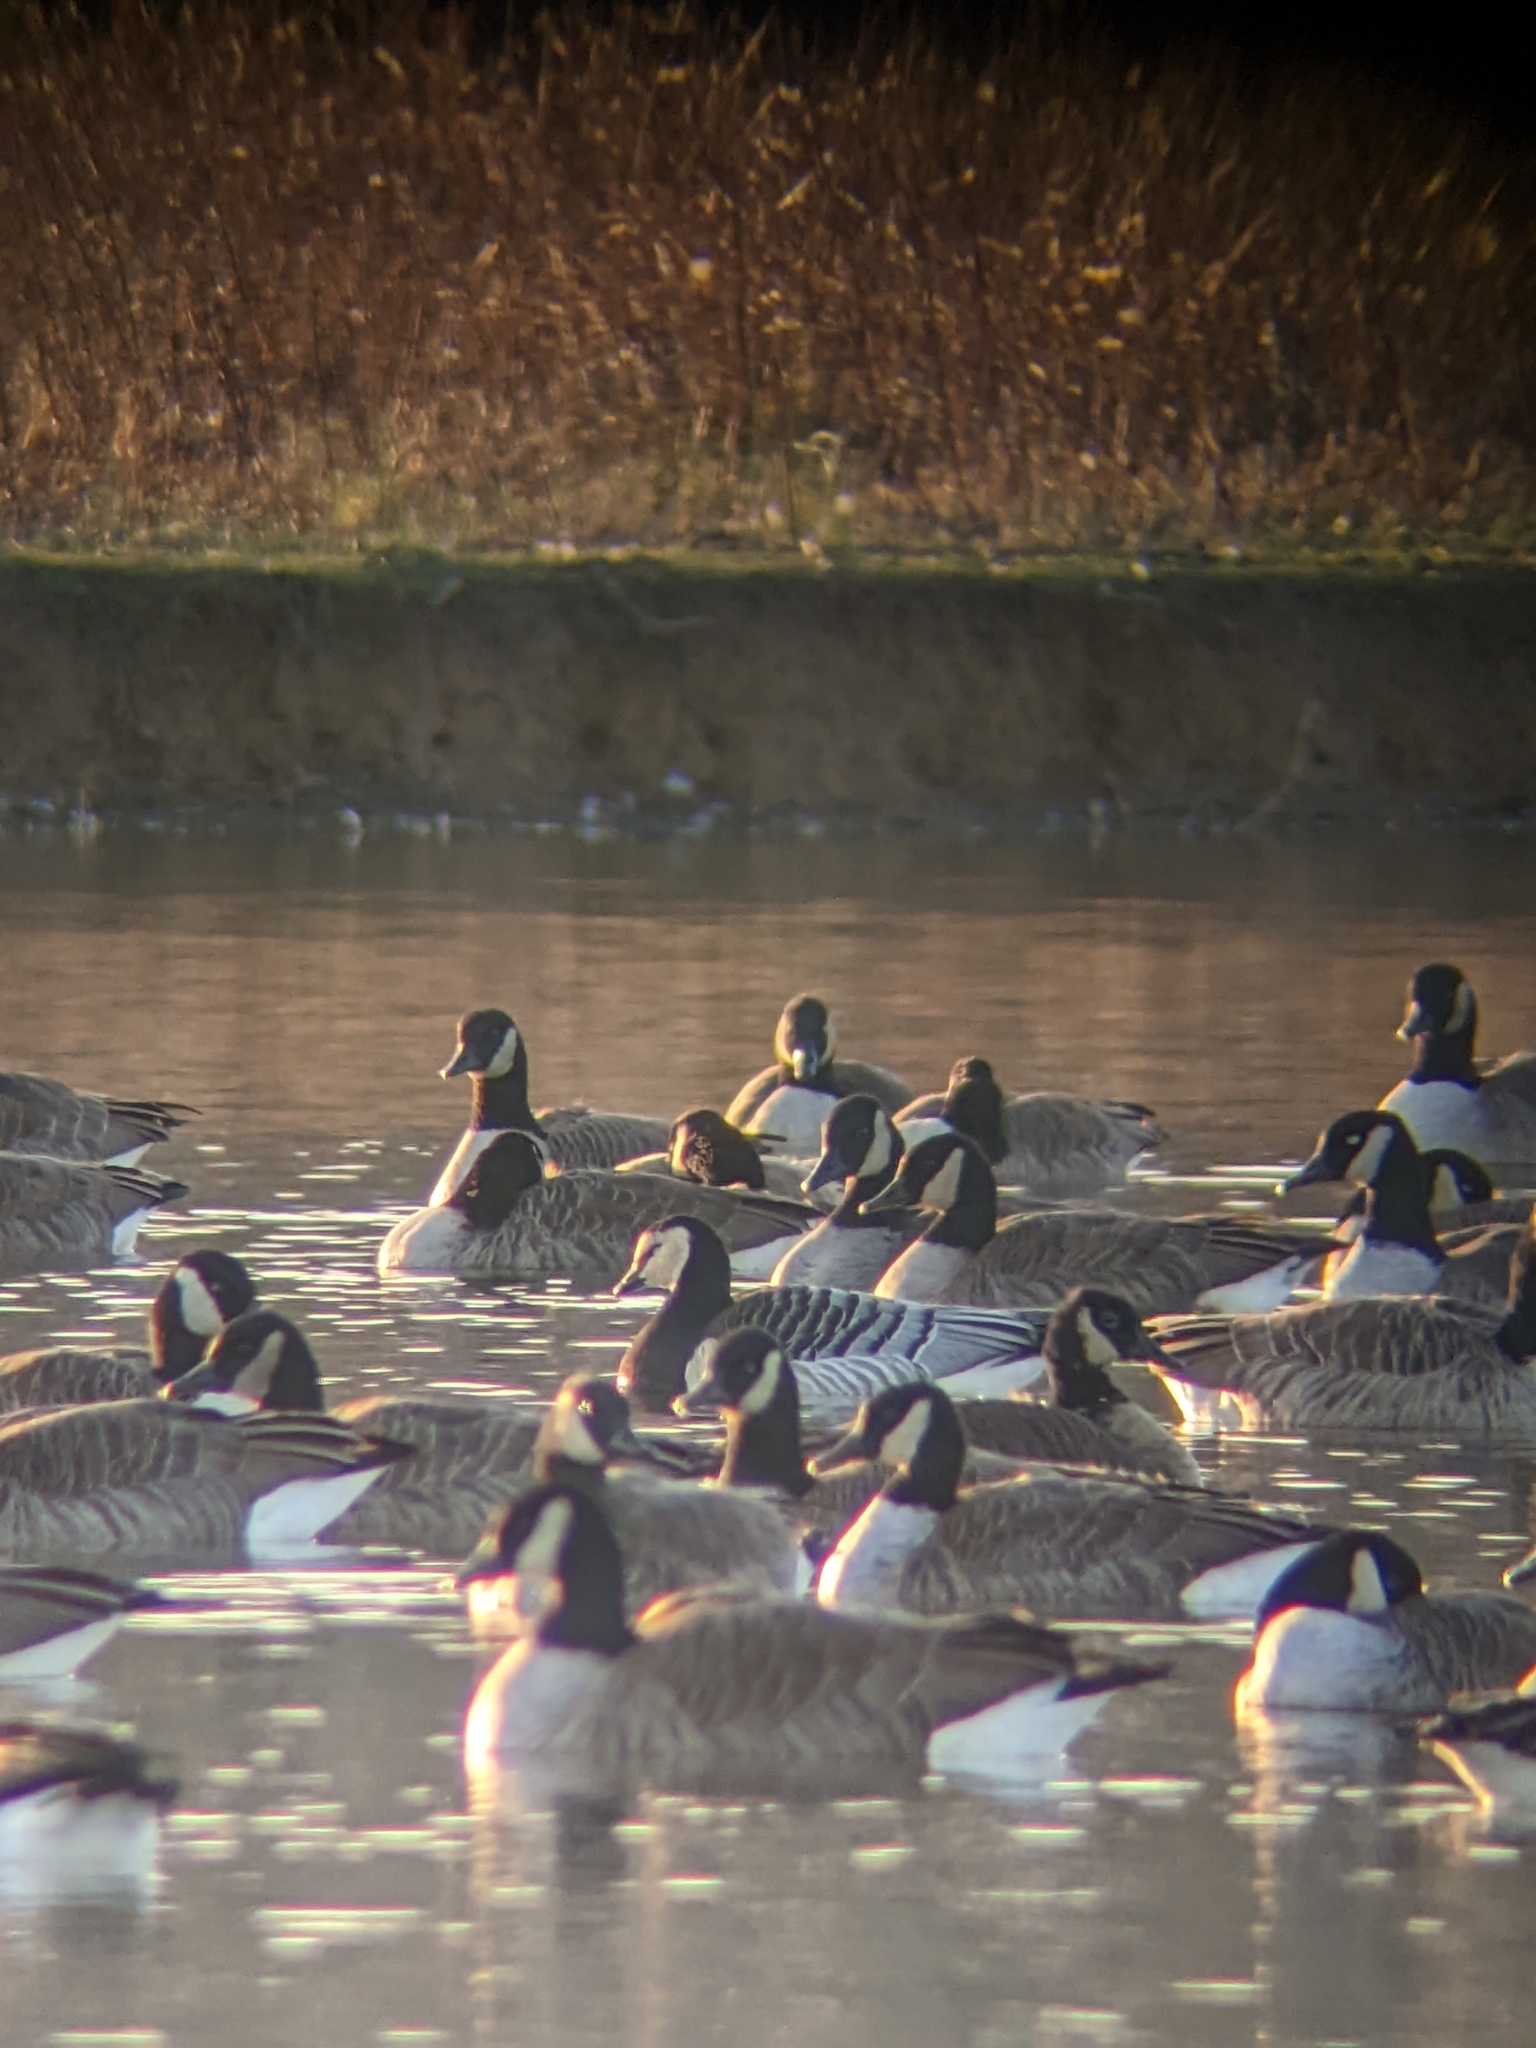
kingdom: Animalia
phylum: Chordata
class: Aves
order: Anseriformes
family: Anatidae
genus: Branta
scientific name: Branta leucopsis
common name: Barnacle goose
